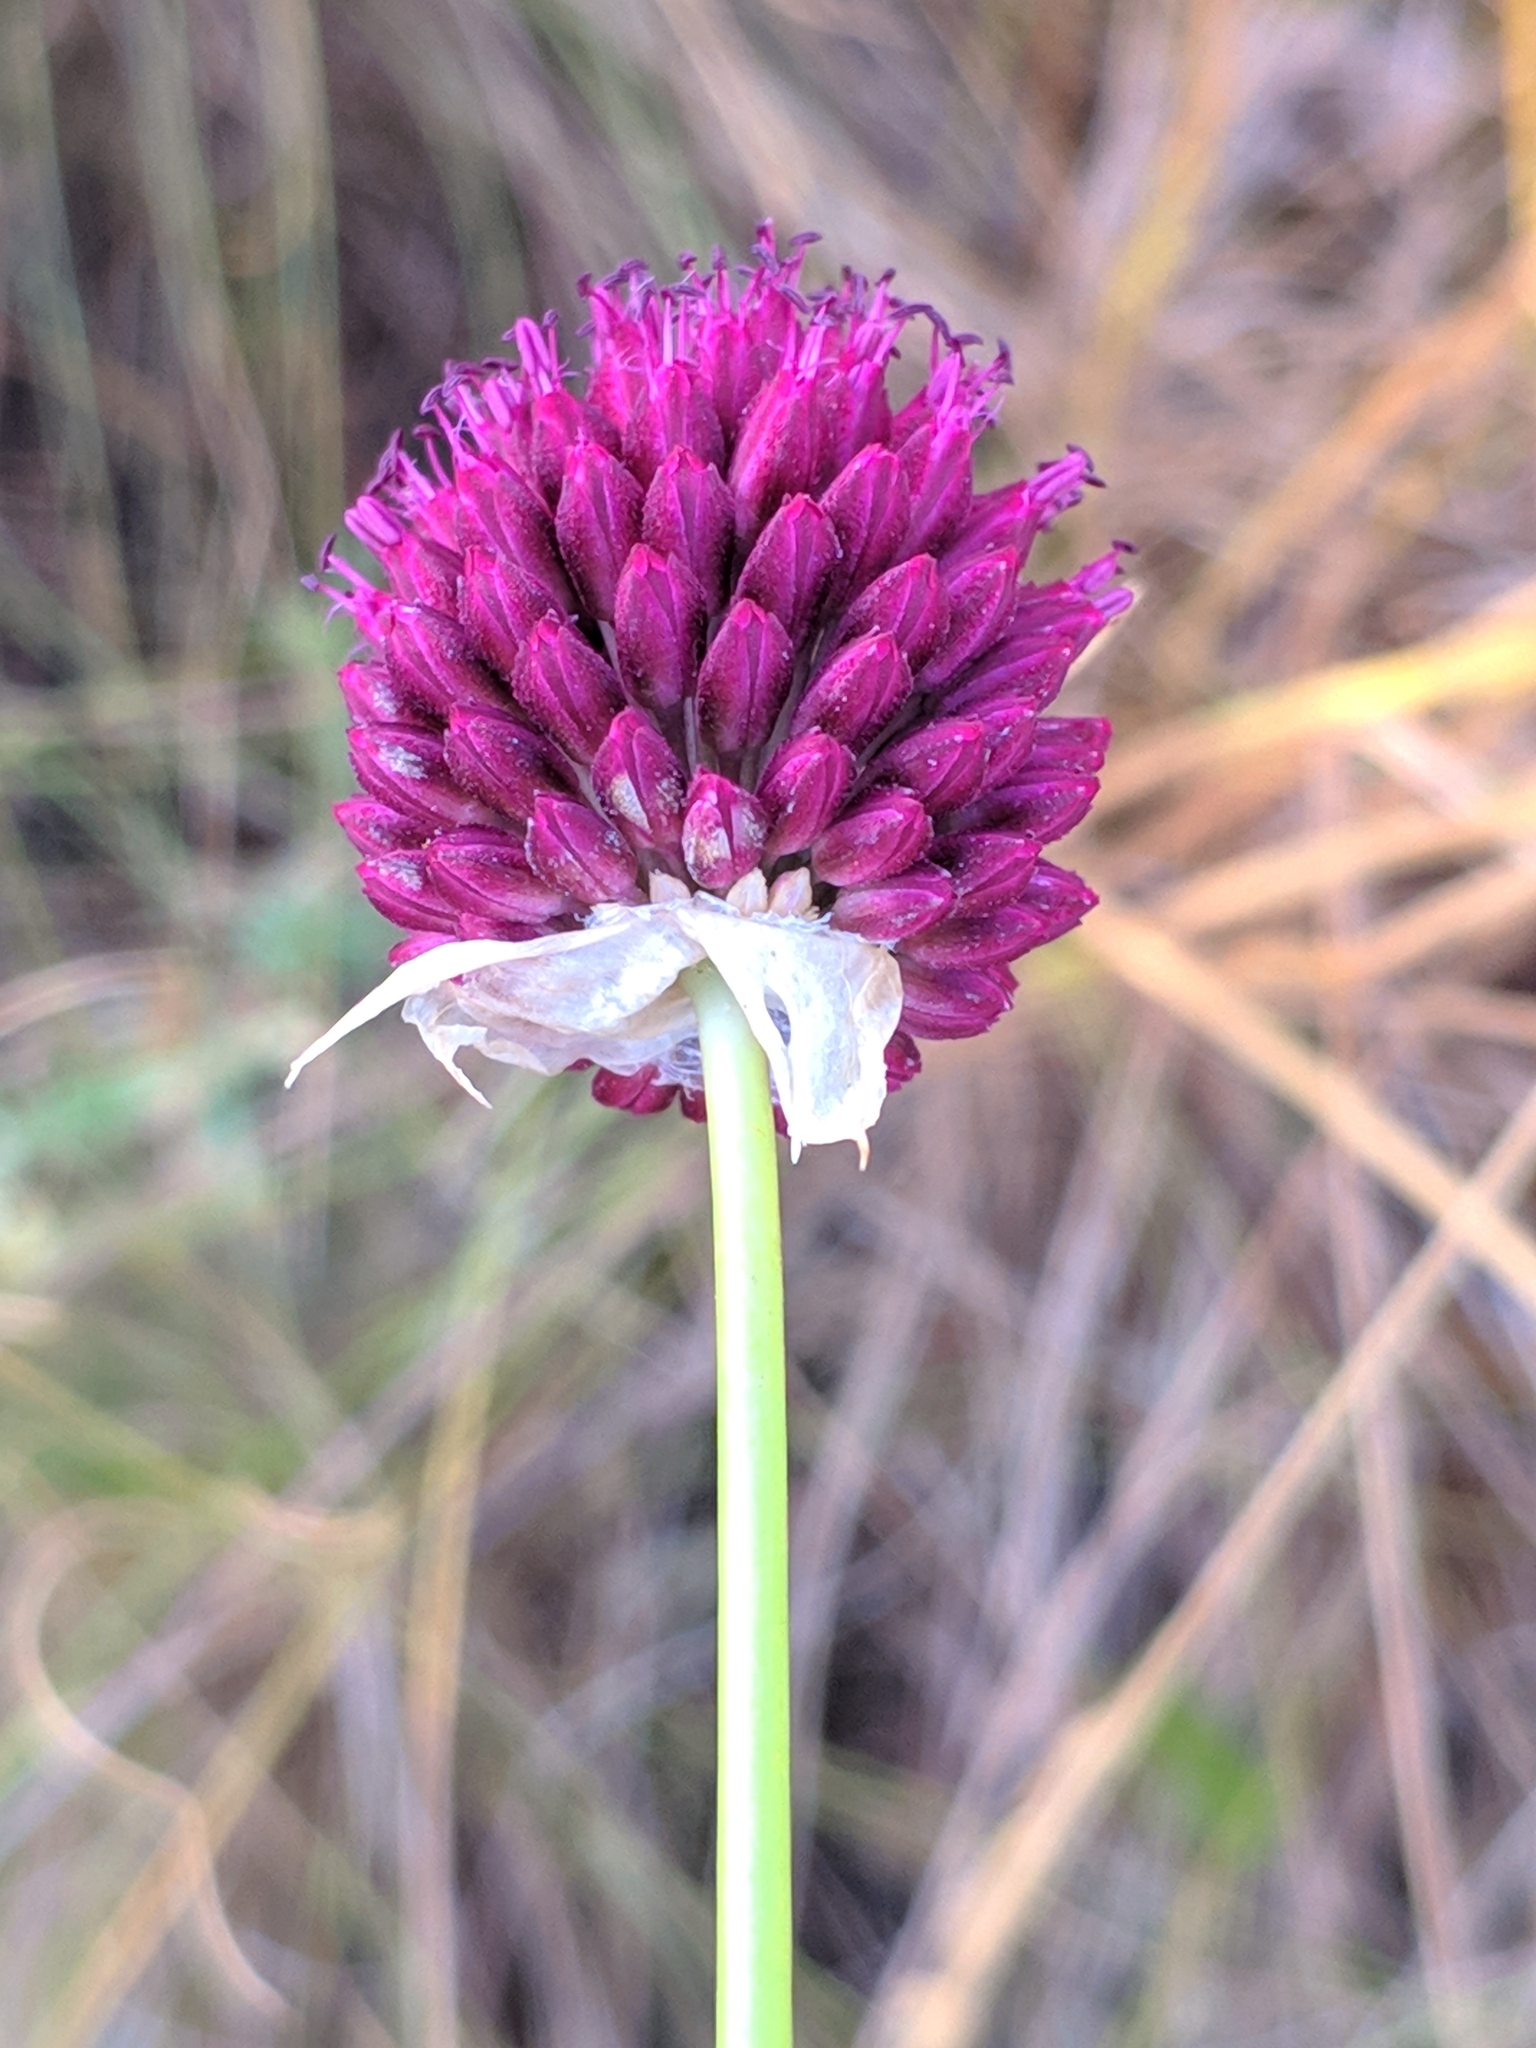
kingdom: Plantae
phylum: Tracheophyta
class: Liliopsida
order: Asparagales
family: Amaryllidaceae
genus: Allium
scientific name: Allium sphaerocephalon
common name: Round-headed leek
